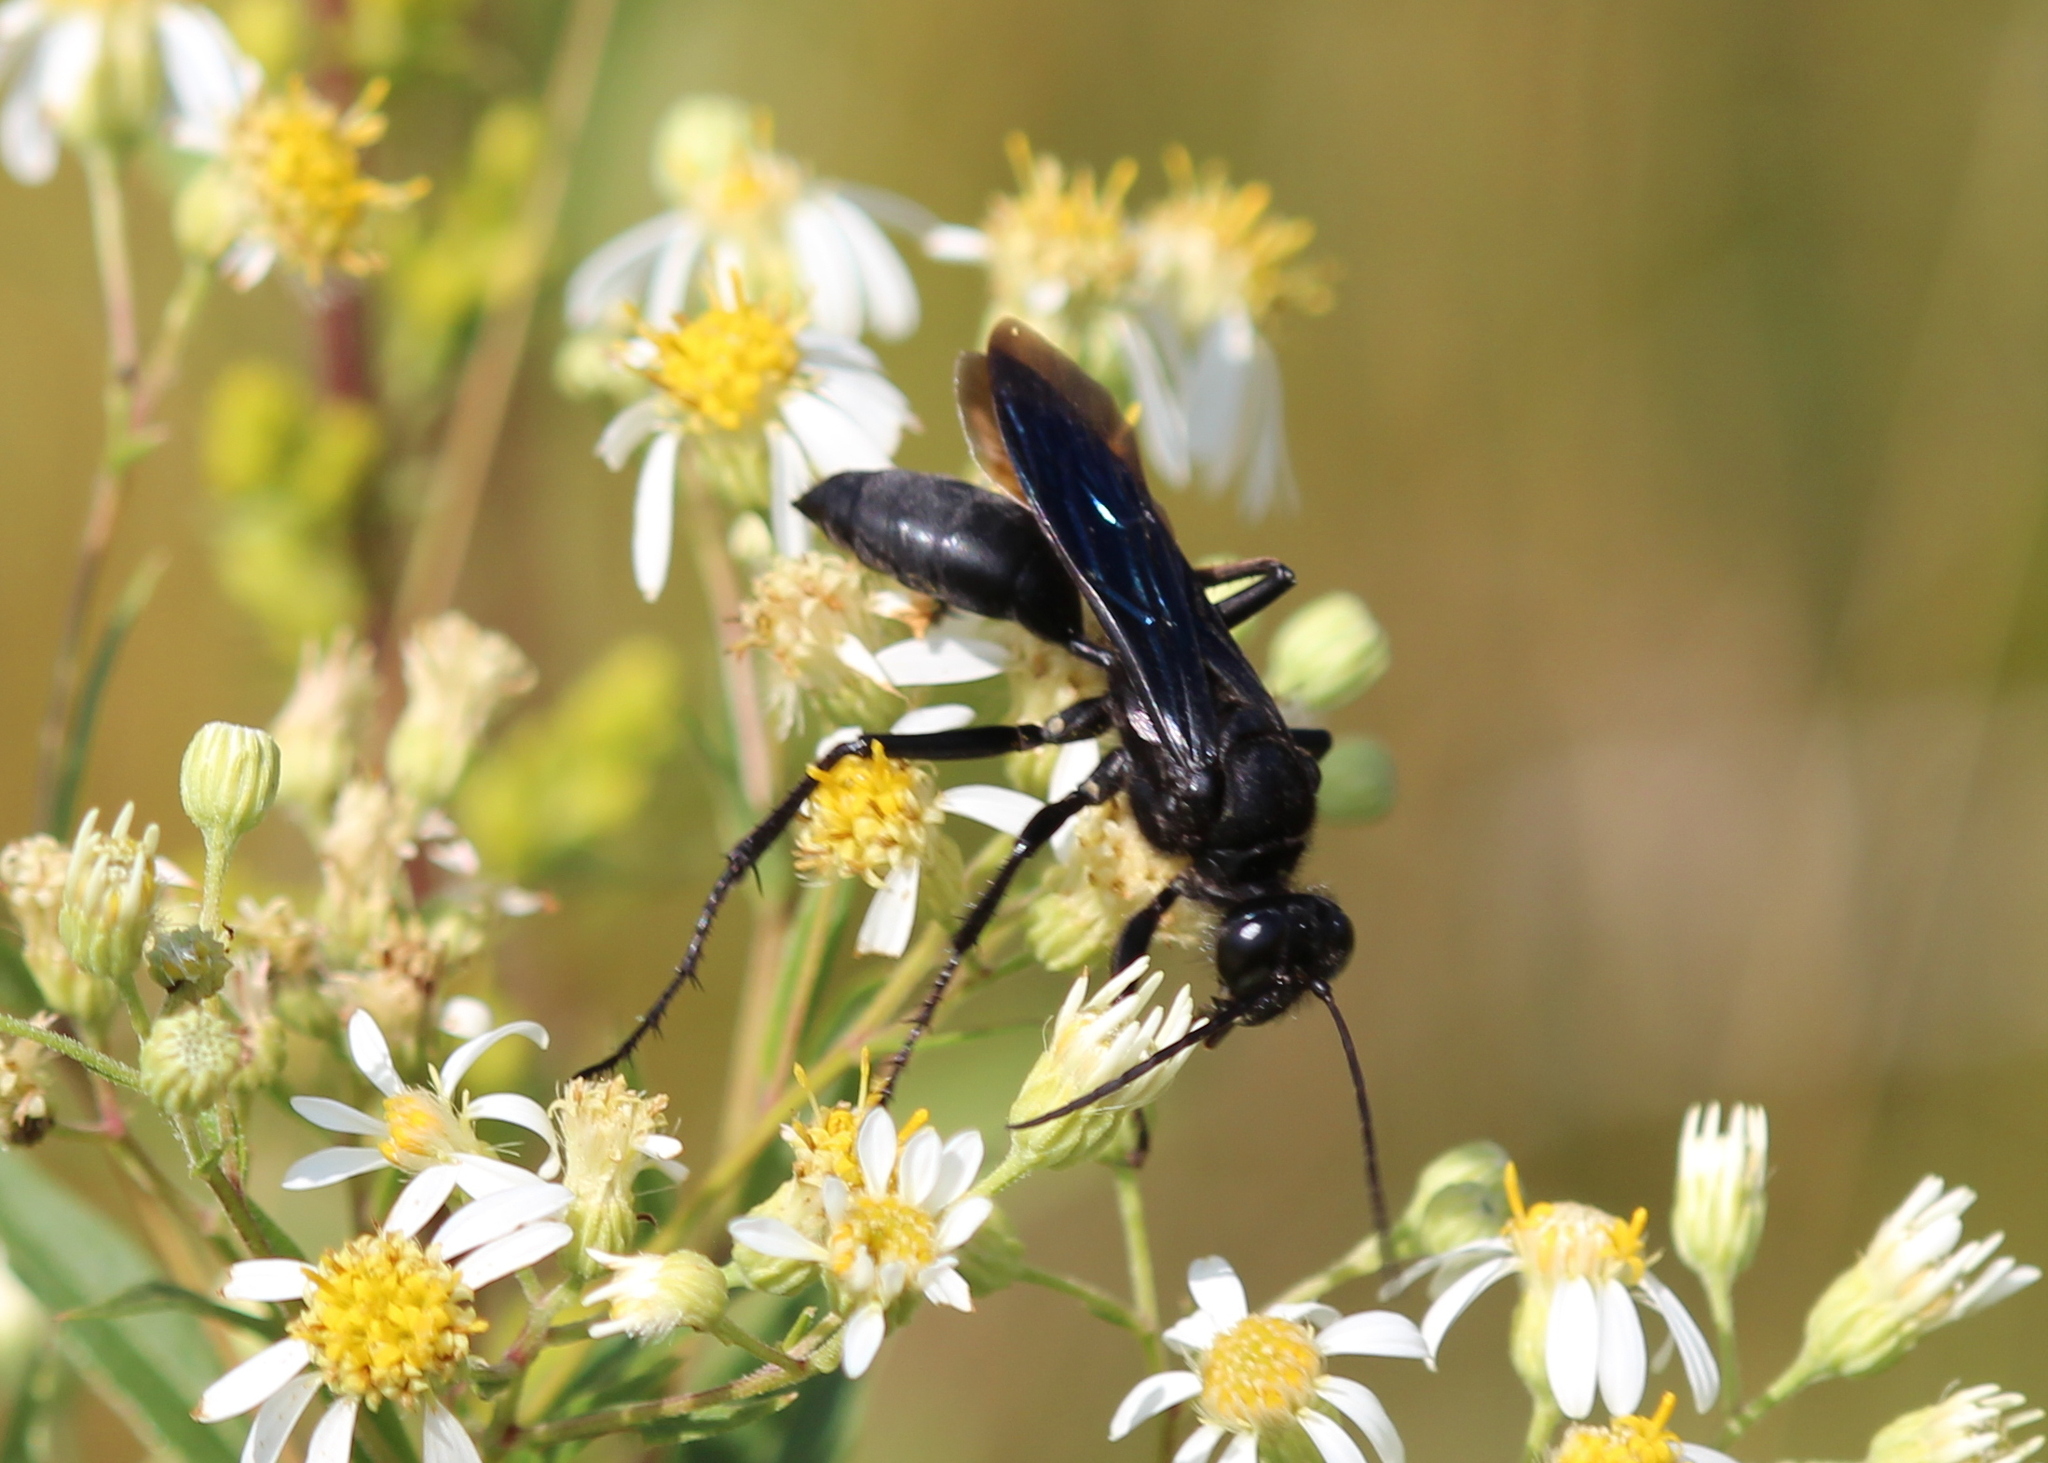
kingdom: Animalia
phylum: Arthropoda
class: Insecta
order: Hymenoptera
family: Sphecidae
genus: Sphex
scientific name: Sphex pensylvanicus
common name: Great black digger wasp
